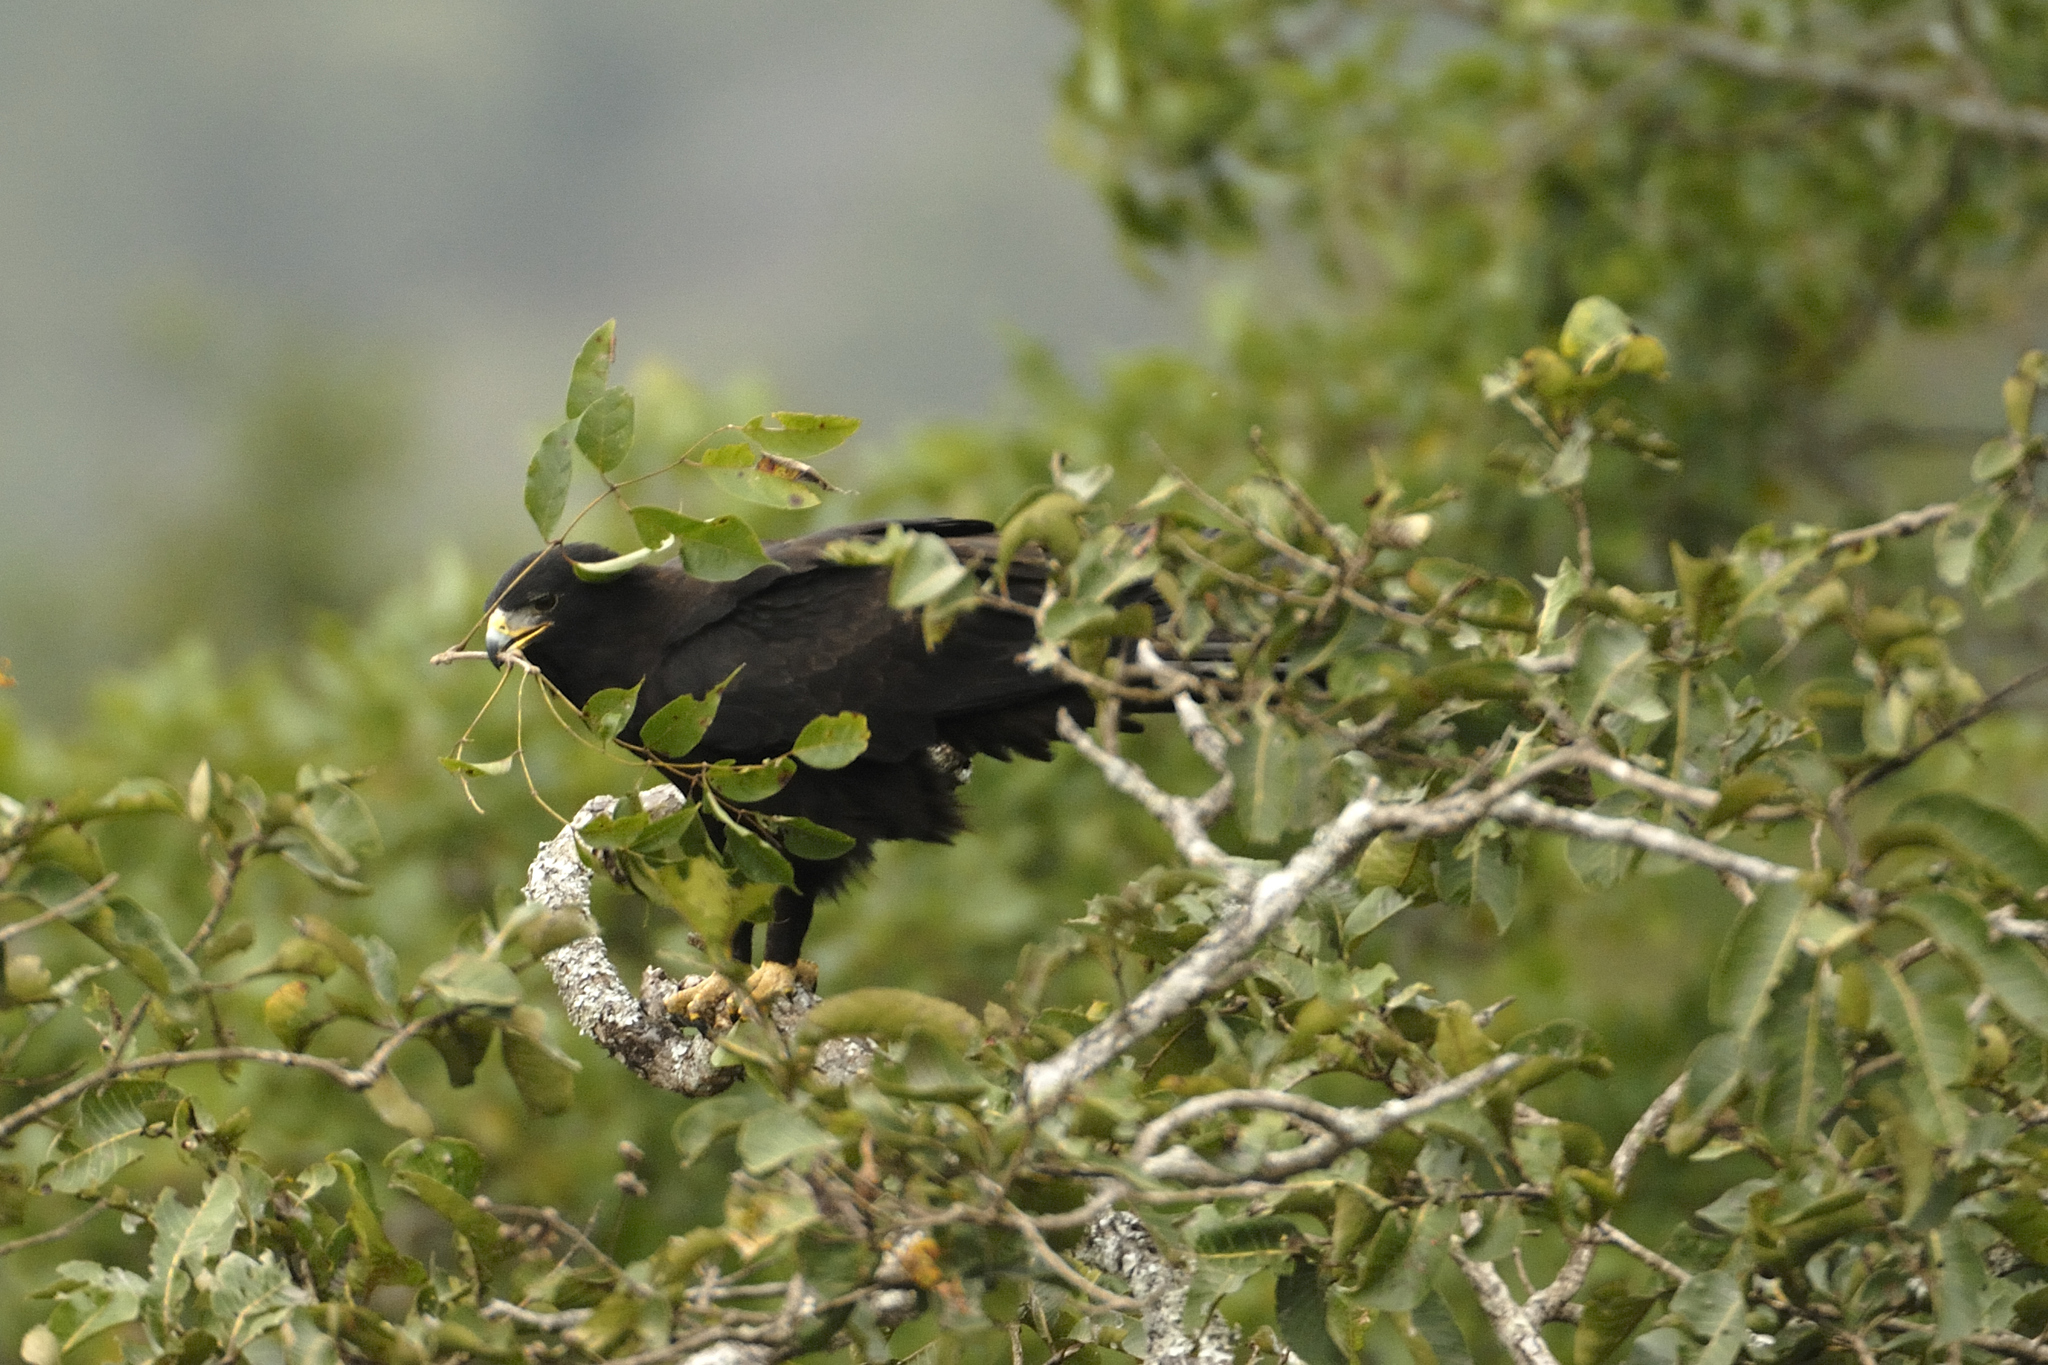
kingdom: Animalia
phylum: Chordata
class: Aves
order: Accipitriformes
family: Accipitridae
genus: Ictinaetus
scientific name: Ictinaetus malayensis
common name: Black eagle
